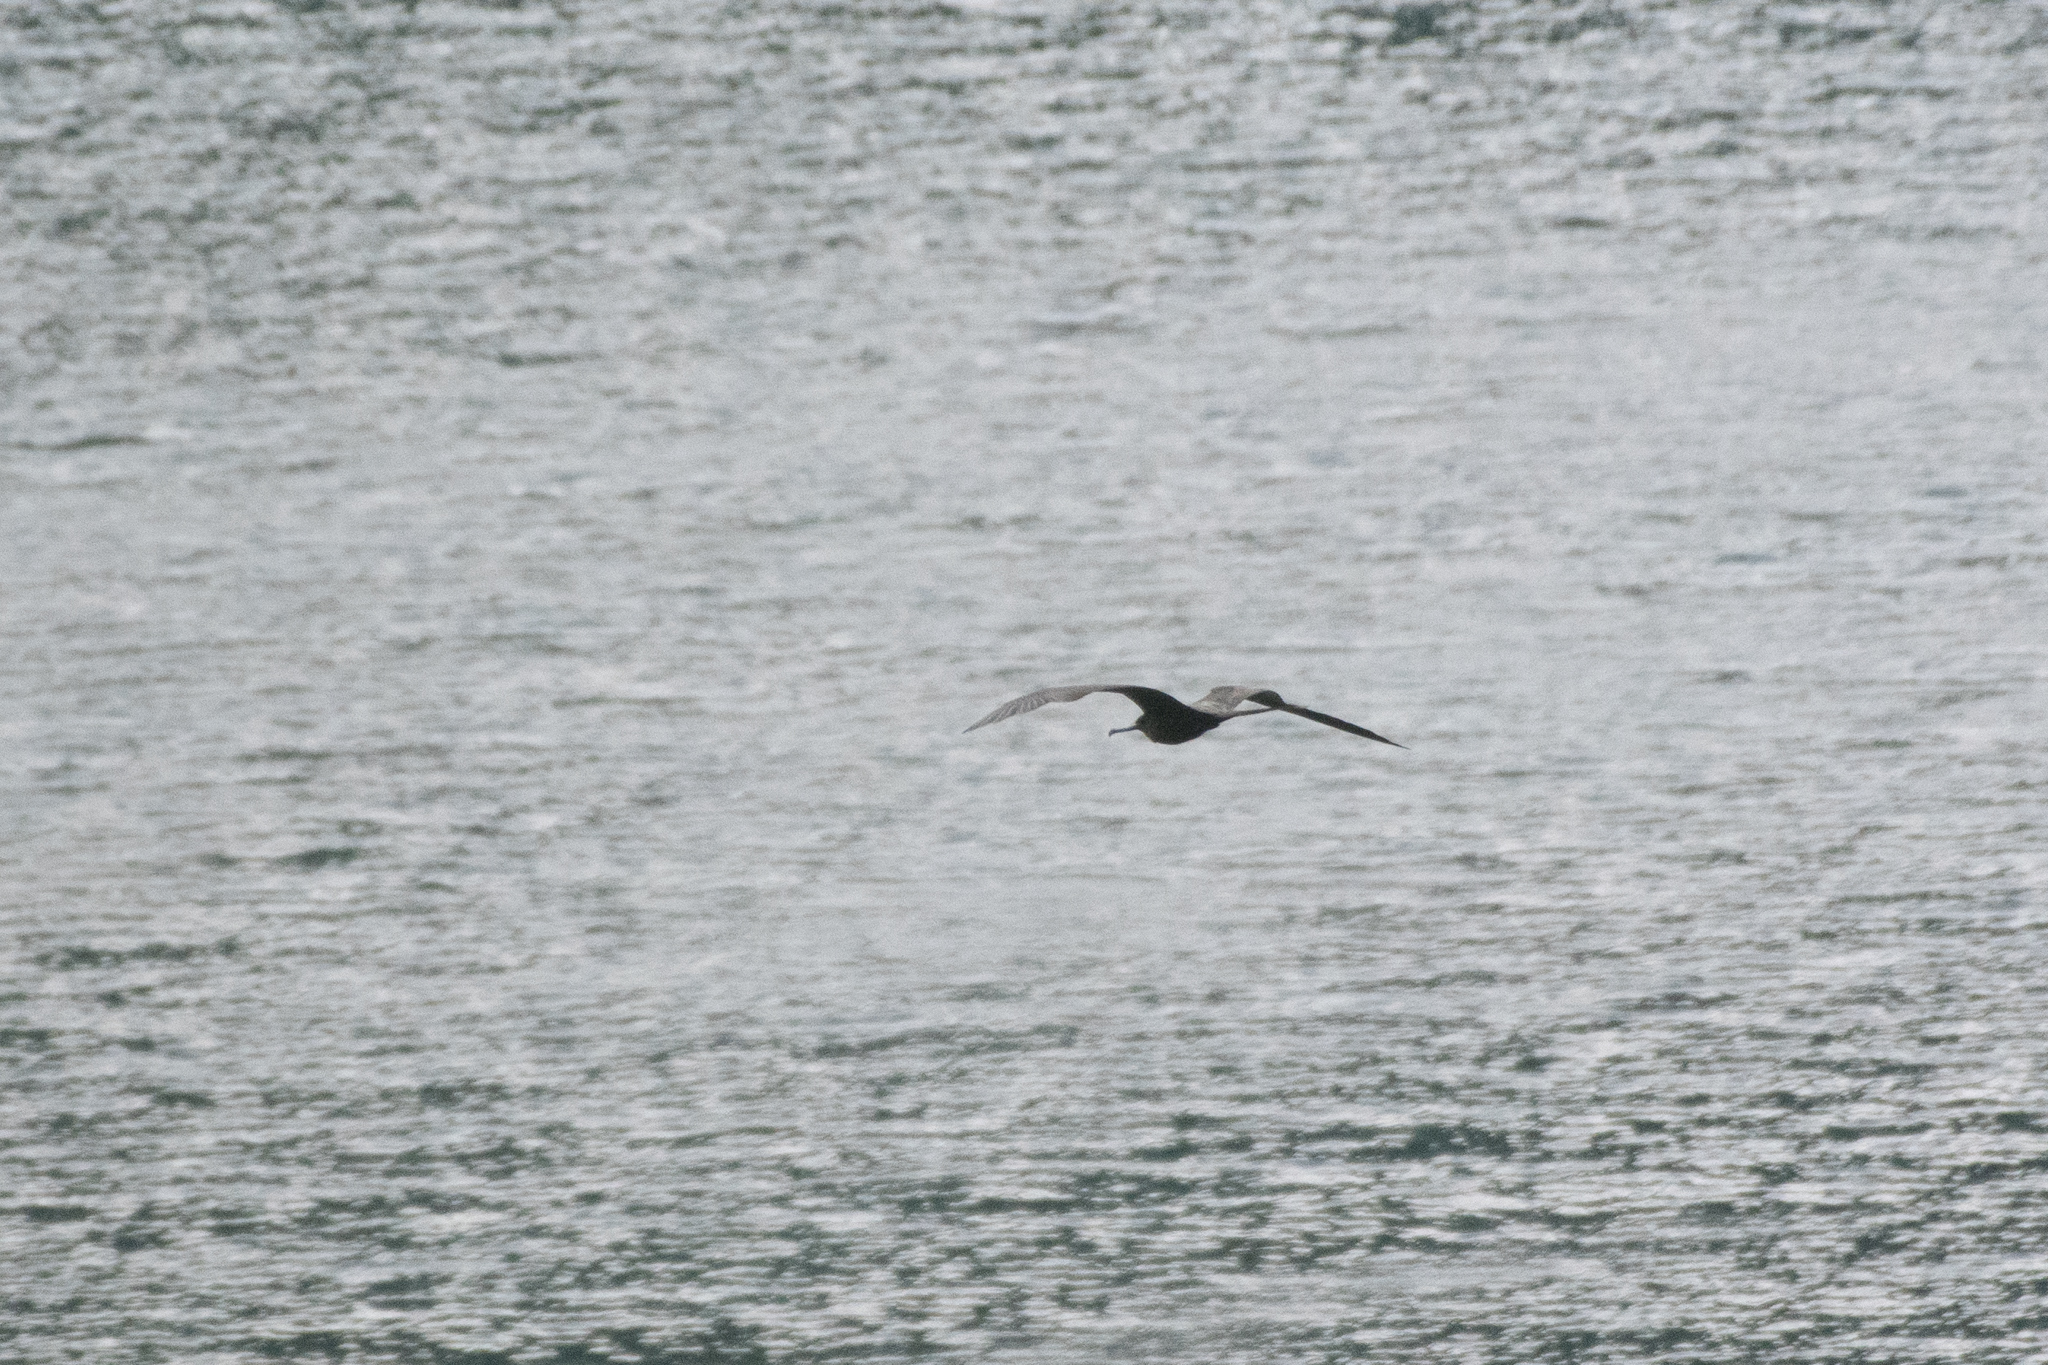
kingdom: Animalia
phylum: Chordata
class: Aves
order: Suliformes
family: Fregatidae
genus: Fregata
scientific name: Fregata magnificens
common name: Magnificent frigatebird
